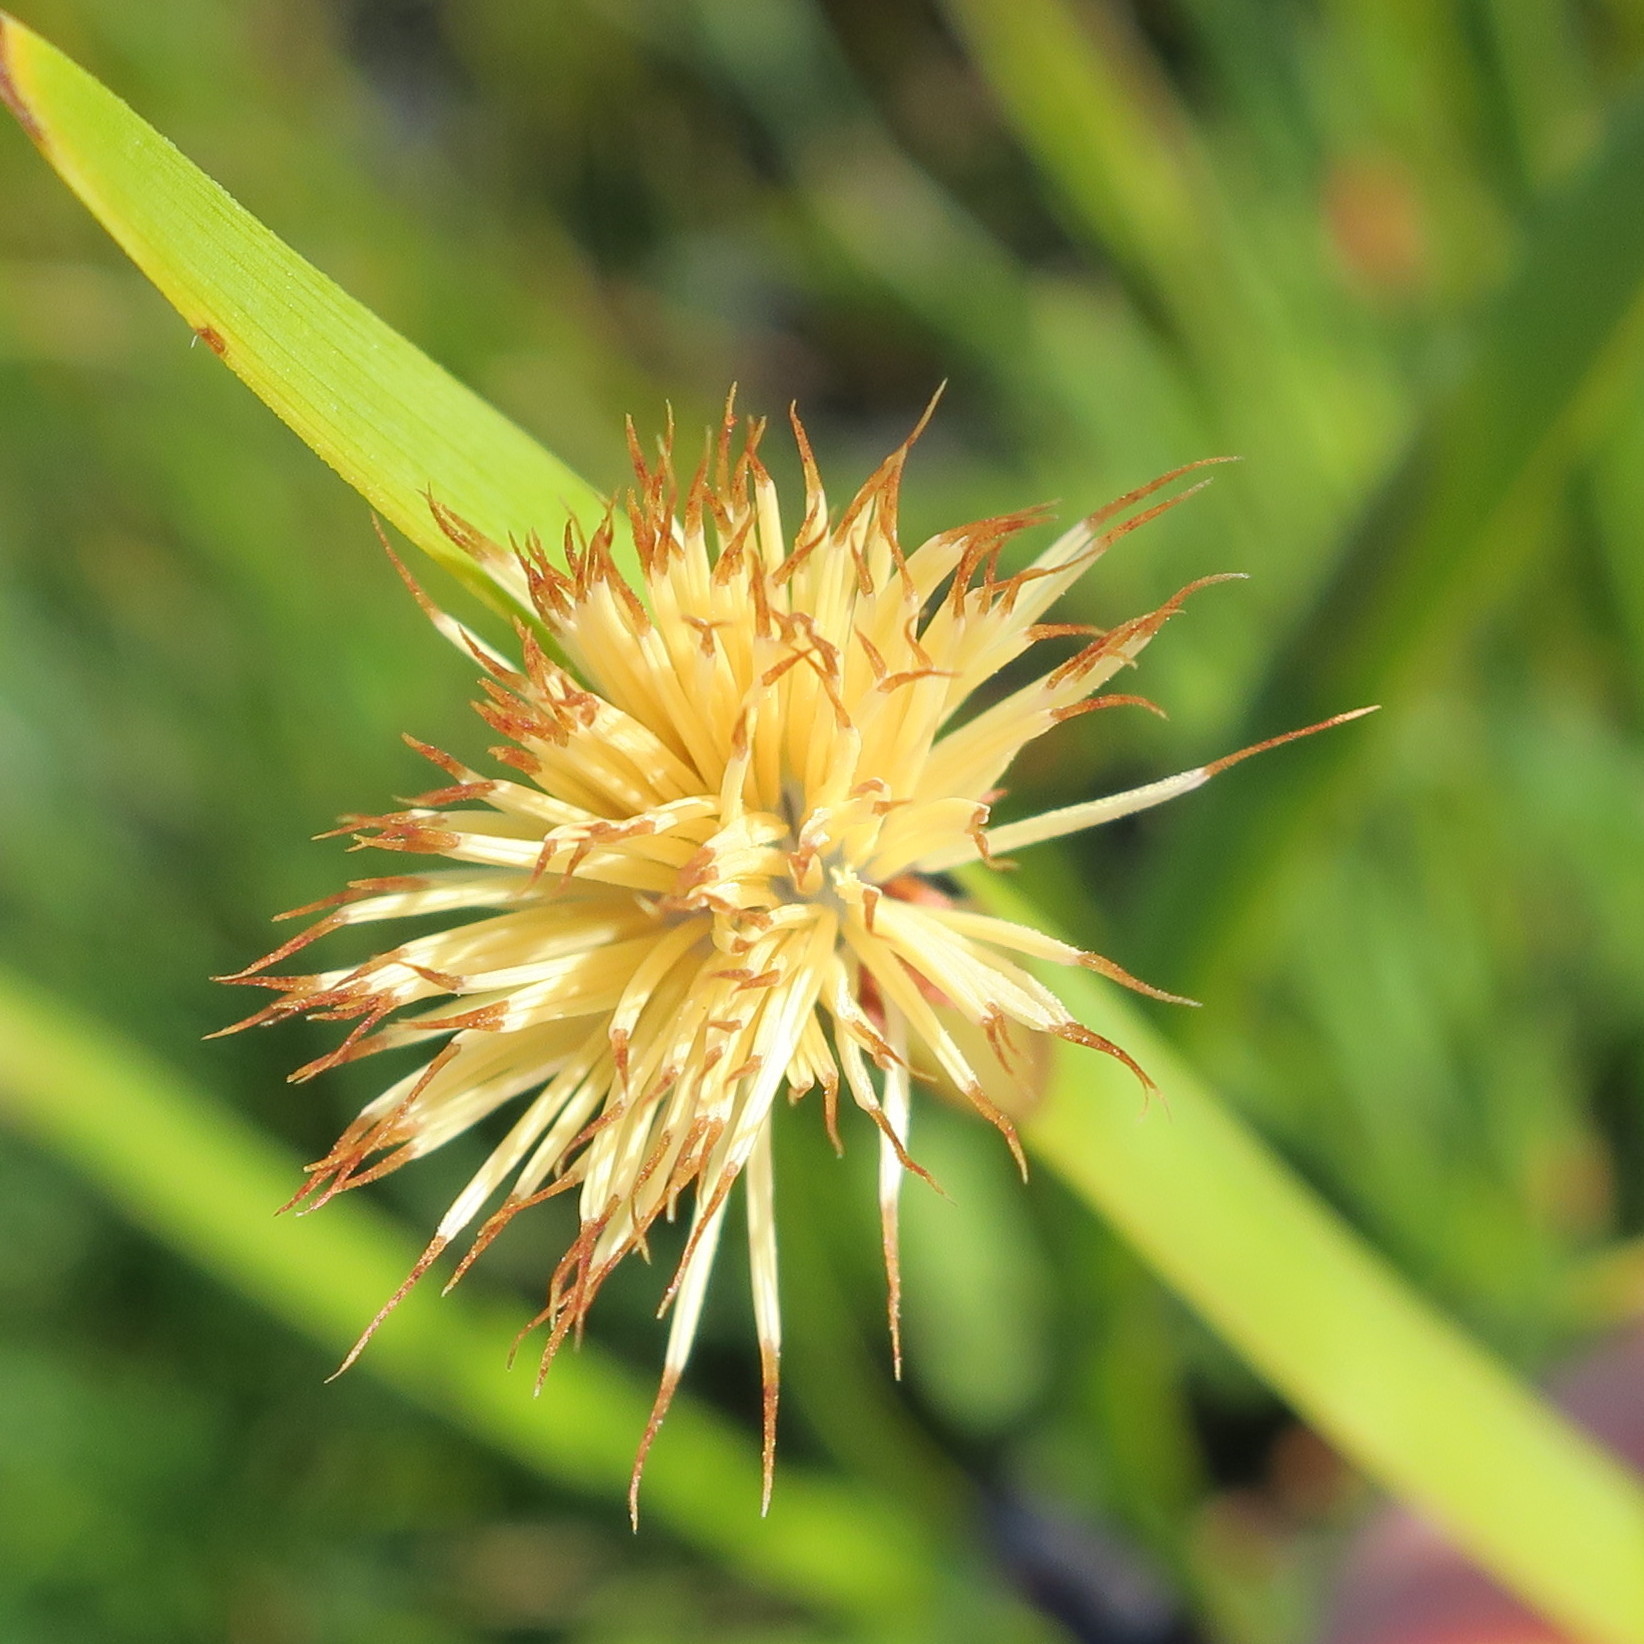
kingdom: Plantae
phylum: Tracheophyta
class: Liliopsida
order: Poales
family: Cyperaceae
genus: Chrysitrix
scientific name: Chrysitrix capensis
